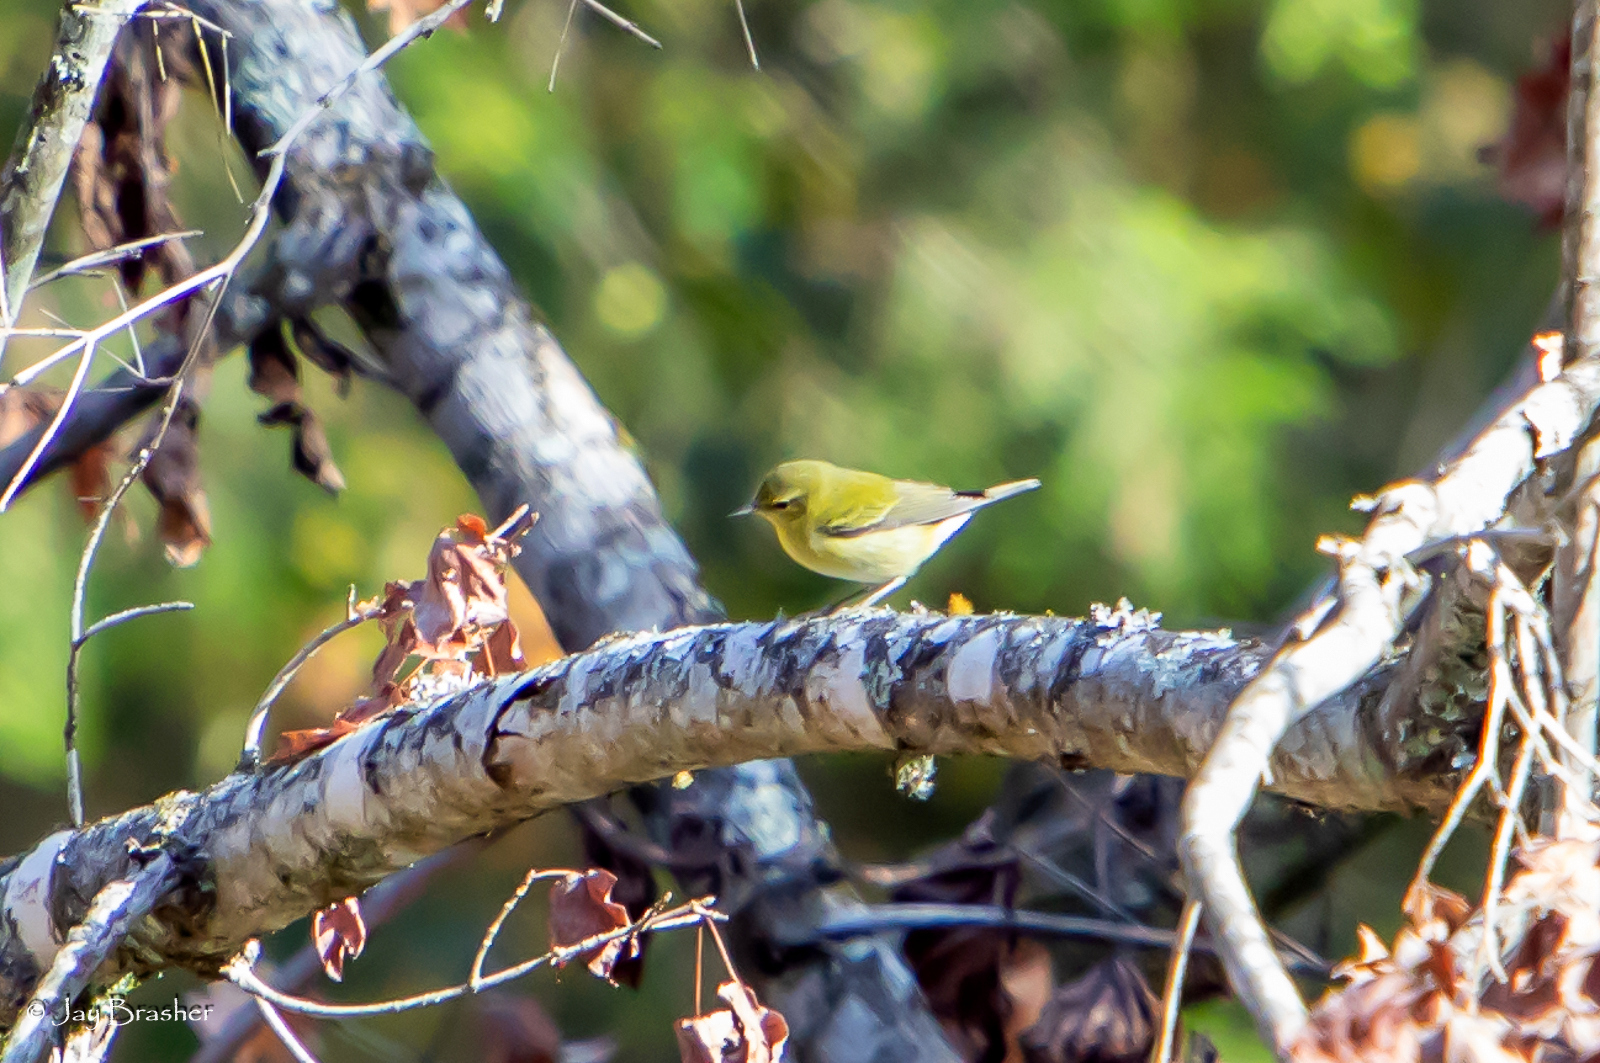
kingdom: Animalia
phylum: Chordata
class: Aves
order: Passeriformes
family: Parulidae
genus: Leiothlypis
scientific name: Leiothlypis peregrina
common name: Tennessee warbler
